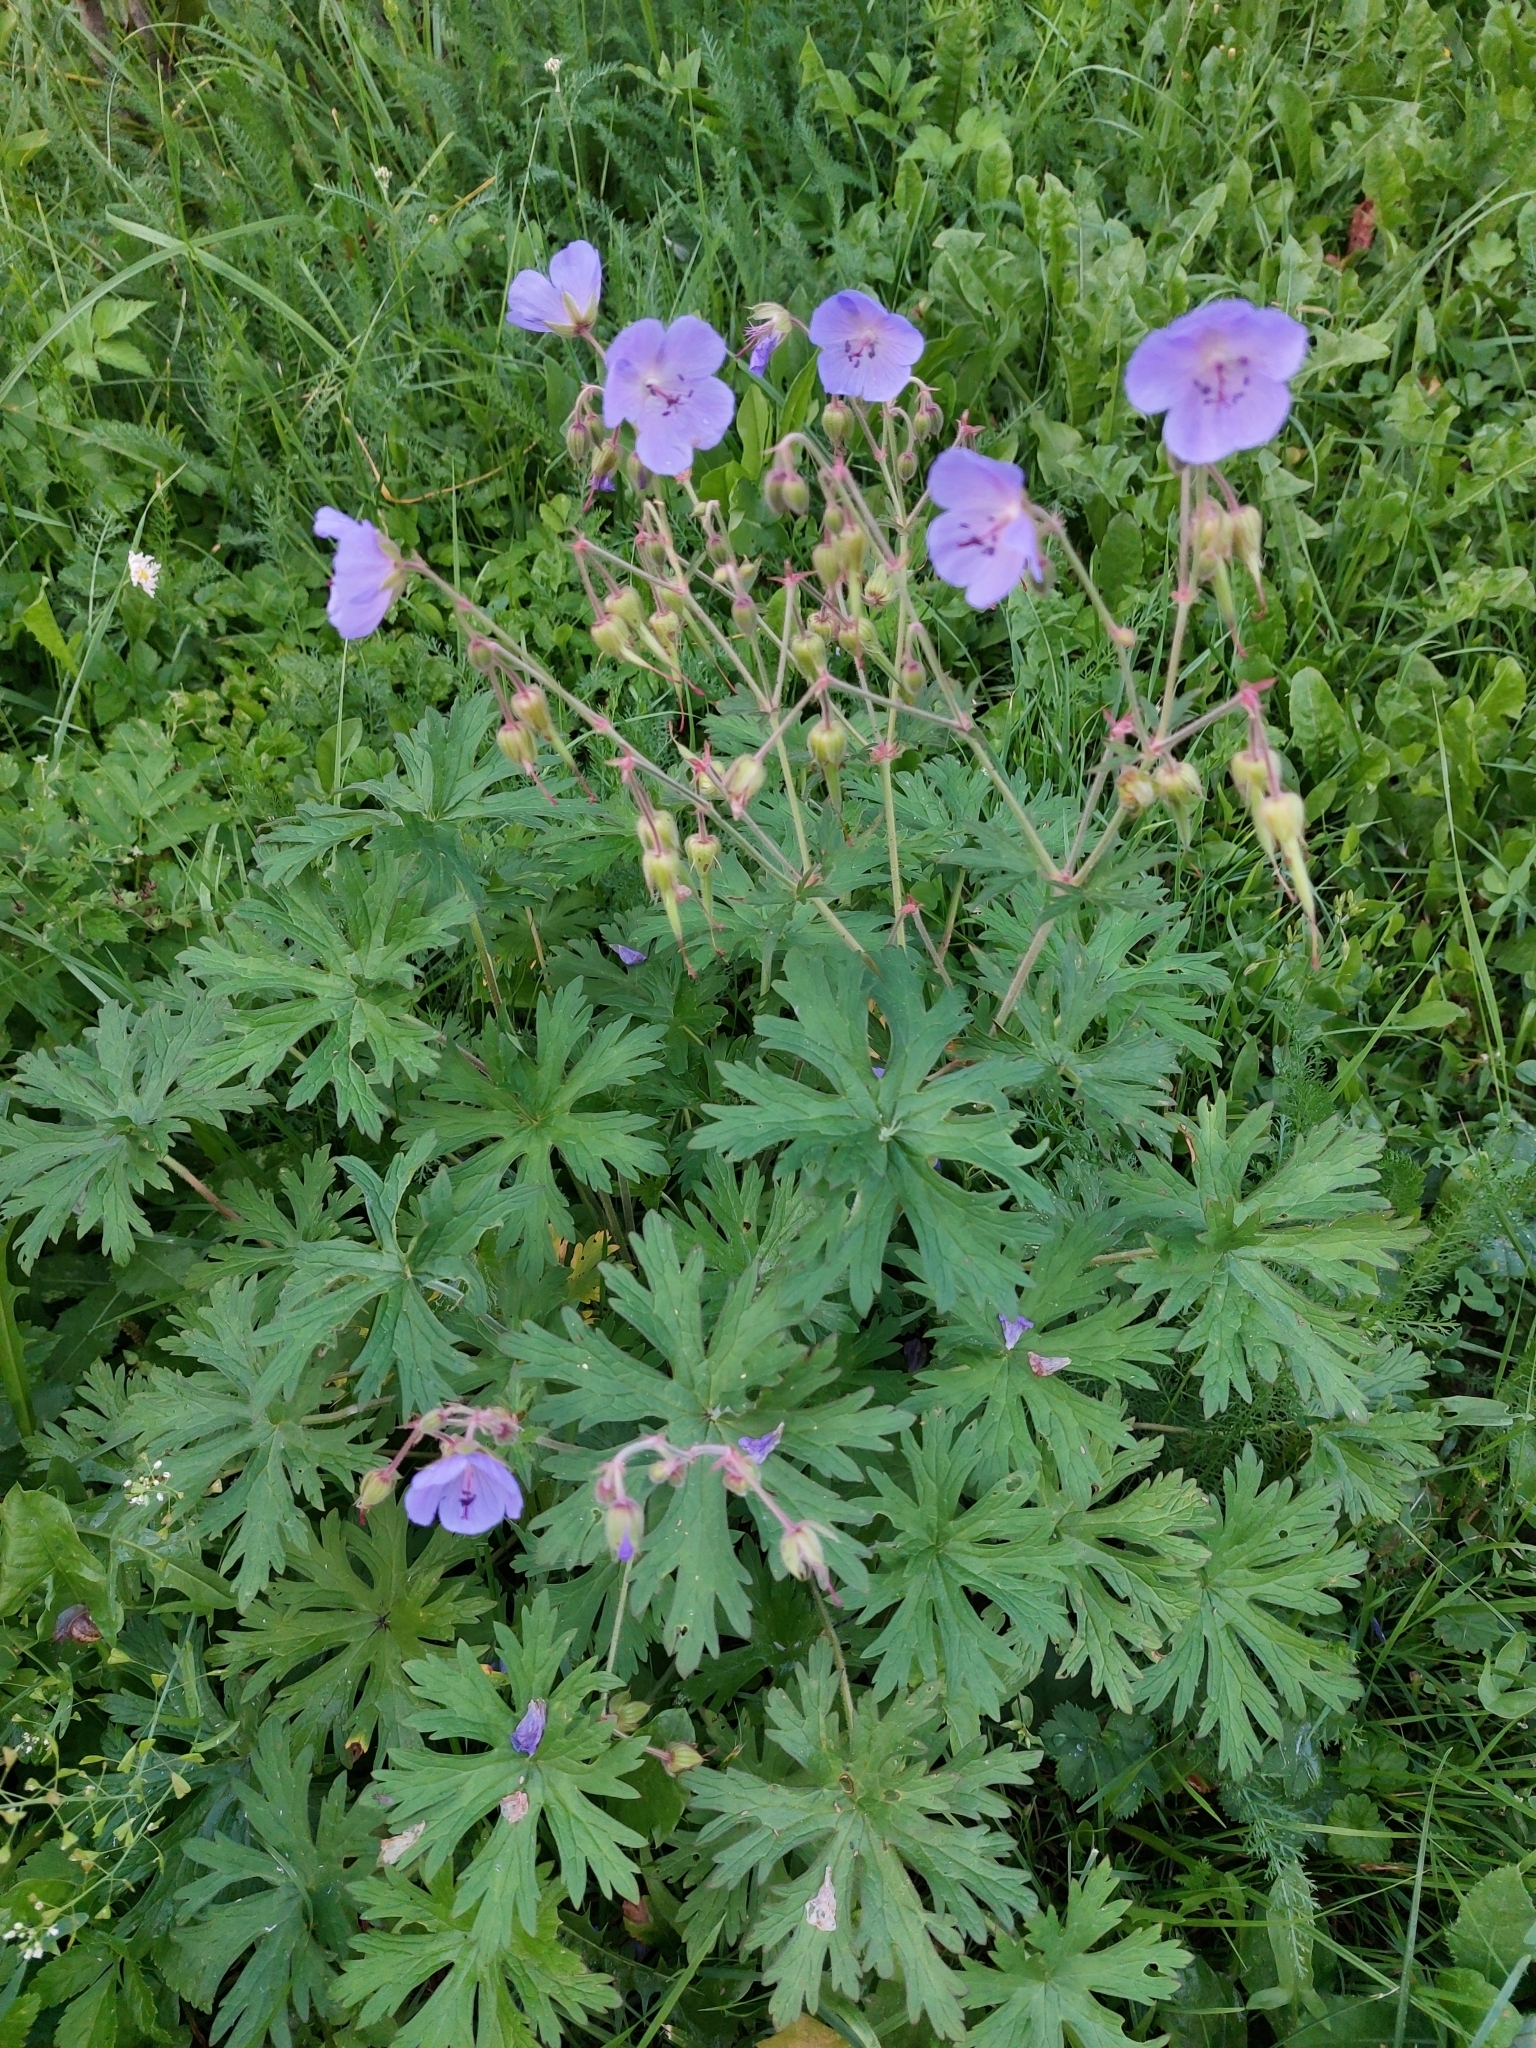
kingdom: Plantae
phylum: Tracheophyta
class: Magnoliopsida
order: Geraniales
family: Geraniaceae
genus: Geranium
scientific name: Geranium pratense
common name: Meadow crane's-bill
